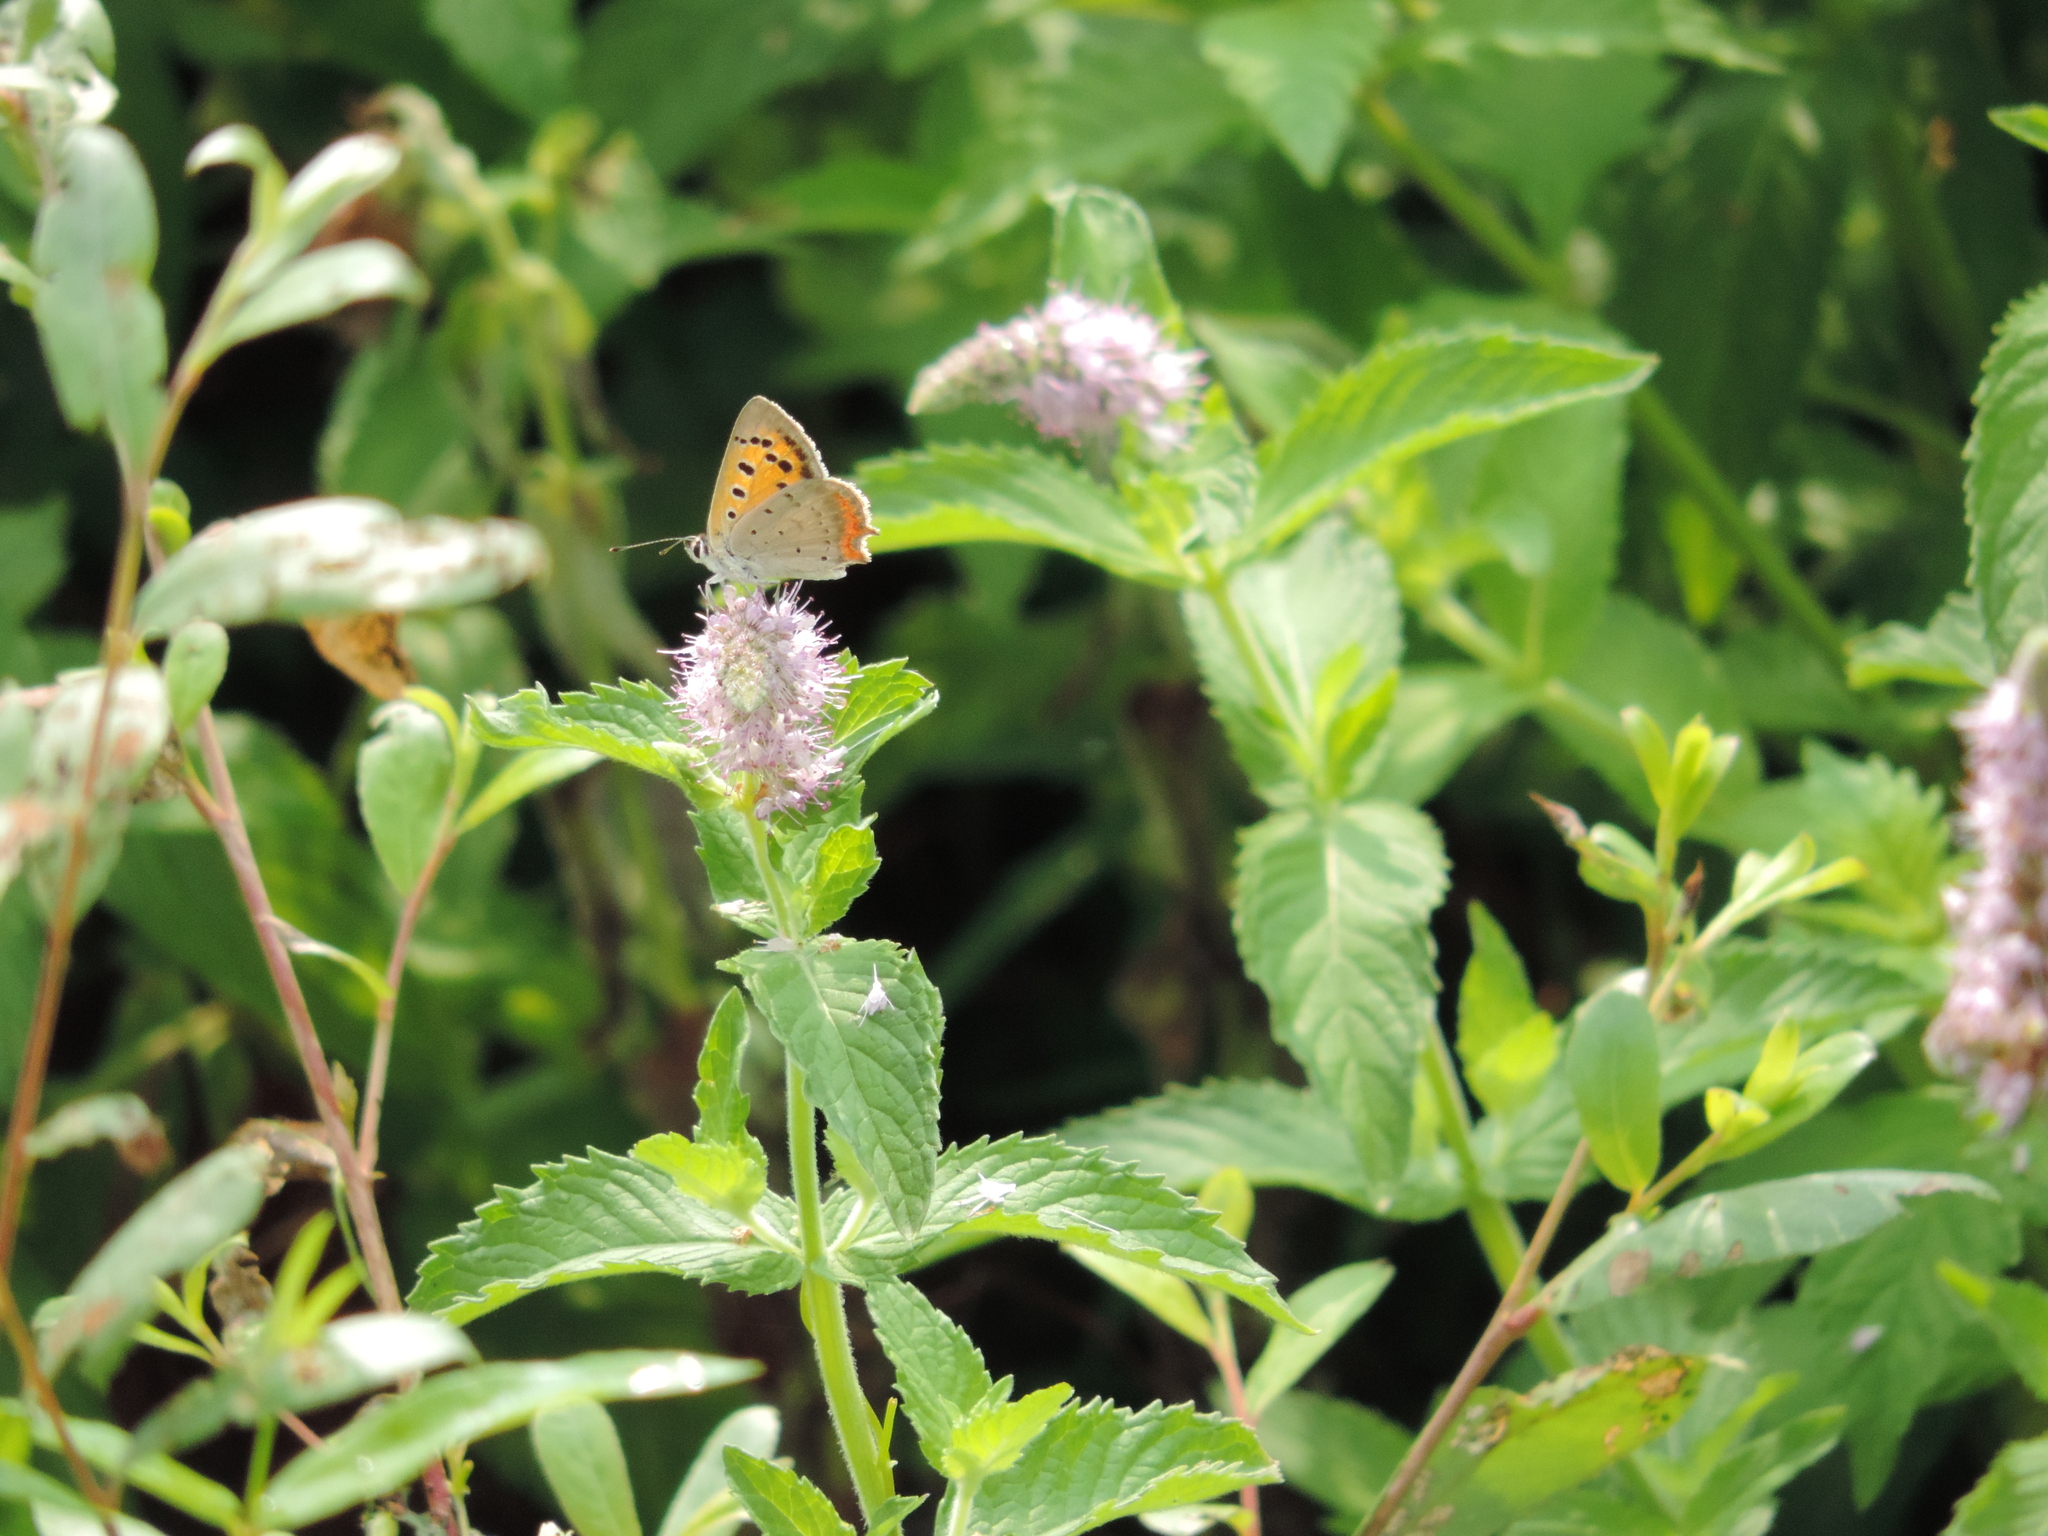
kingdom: Animalia
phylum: Arthropoda
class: Insecta
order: Lepidoptera
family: Lycaenidae
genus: Lycaena
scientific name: Lycaena phlaeas
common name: Small copper
